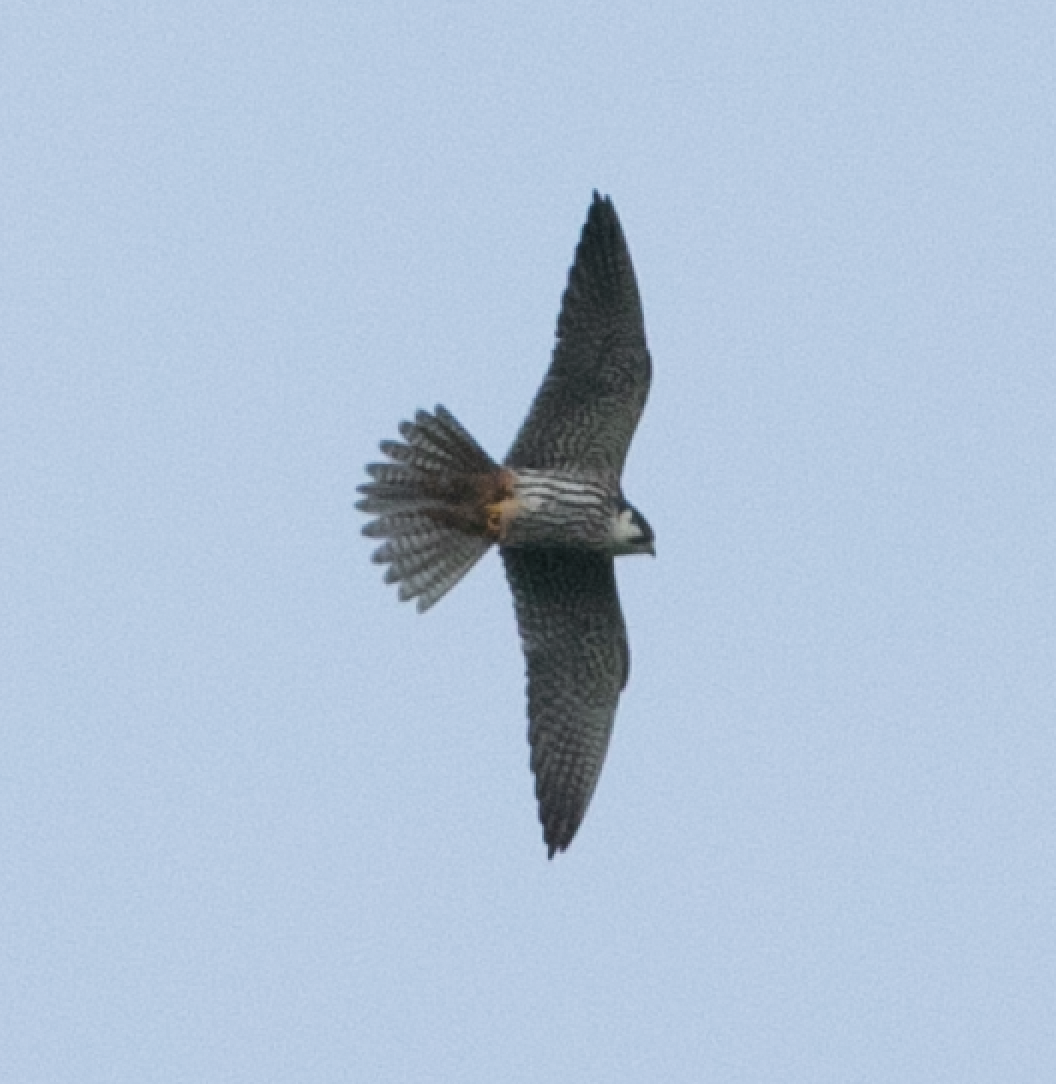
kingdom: Animalia
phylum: Chordata
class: Aves
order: Falconiformes
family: Falconidae
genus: Falco
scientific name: Falco subbuteo
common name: Eurasian hobby
